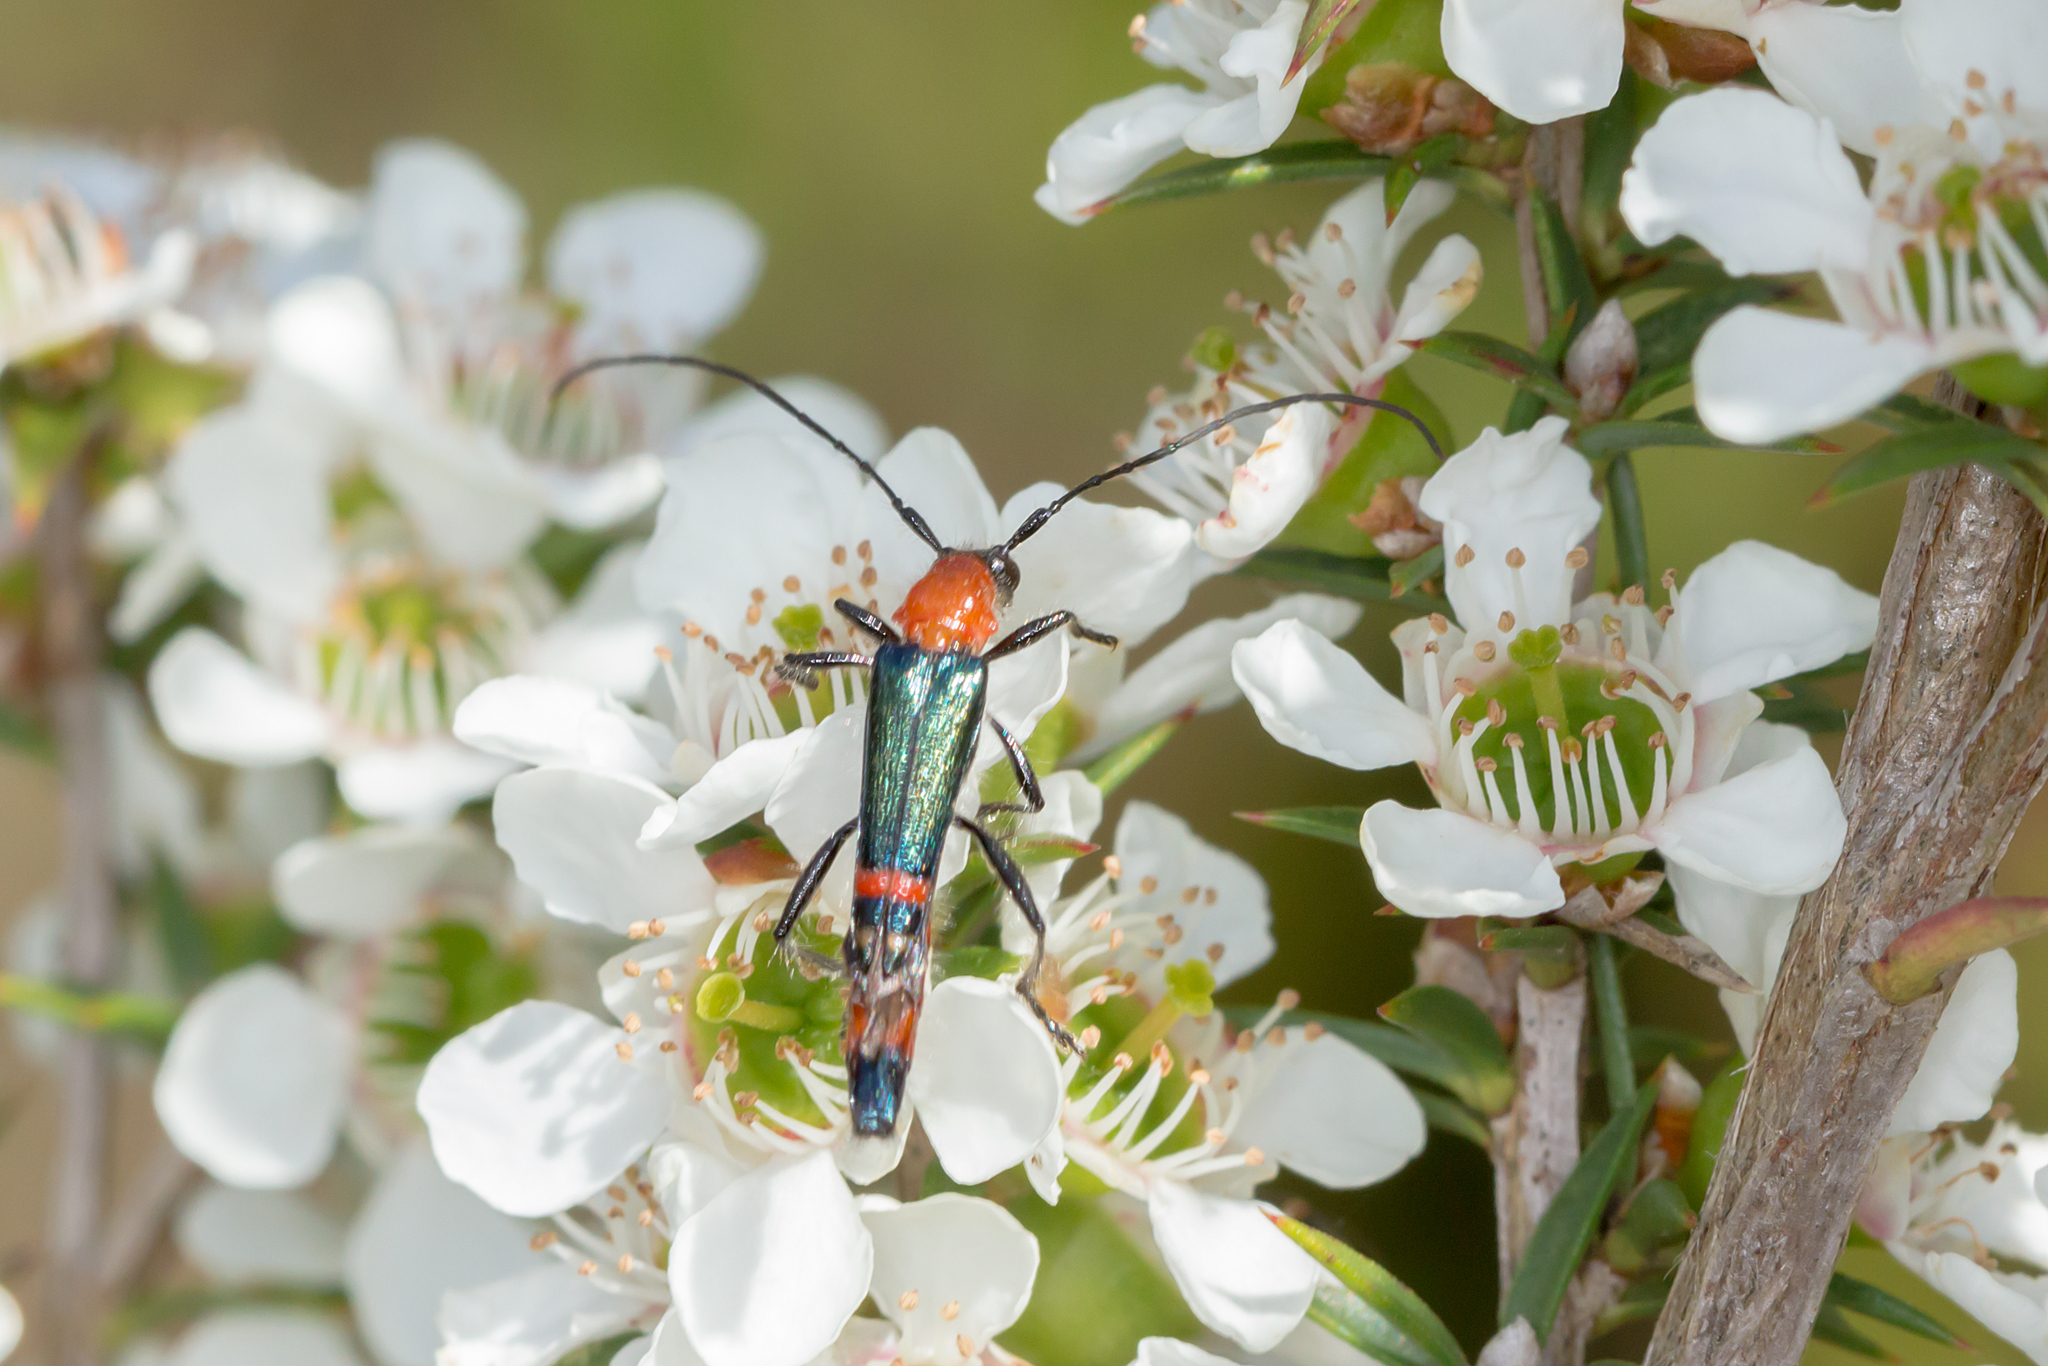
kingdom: Animalia
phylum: Arthropoda
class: Insecta
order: Coleoptera
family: Cerambycidae
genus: Oroderes
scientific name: Oroderes
